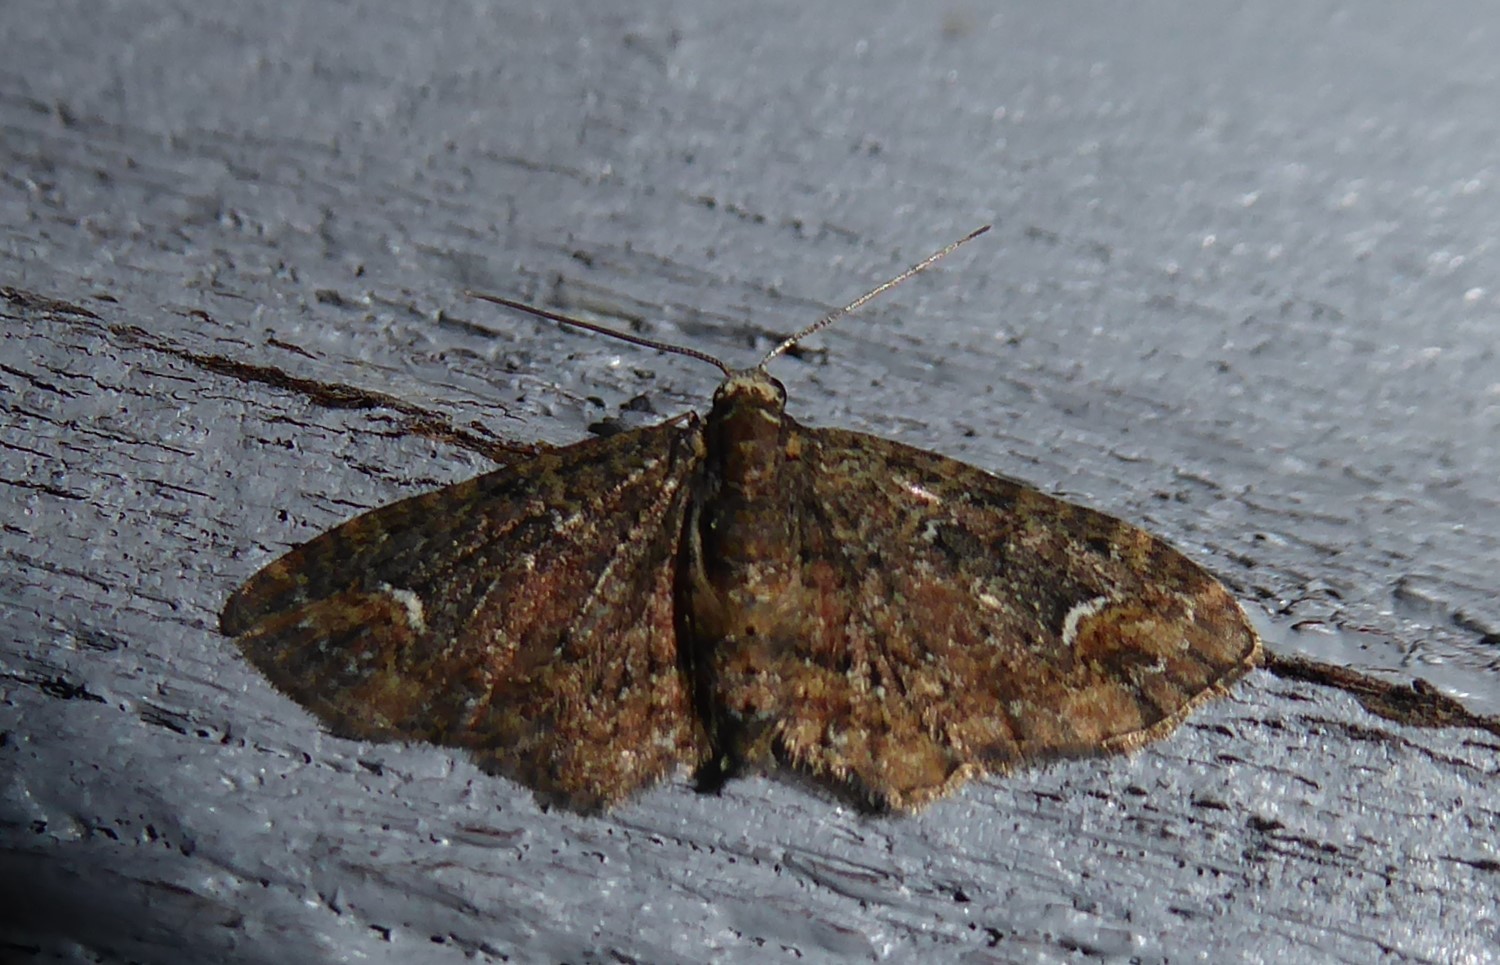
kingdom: Animalia
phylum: Arthropoda
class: Insecta
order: Lepidoptera
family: Geometridae
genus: Pasiphilodes
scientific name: Pasiphilodes testulata
